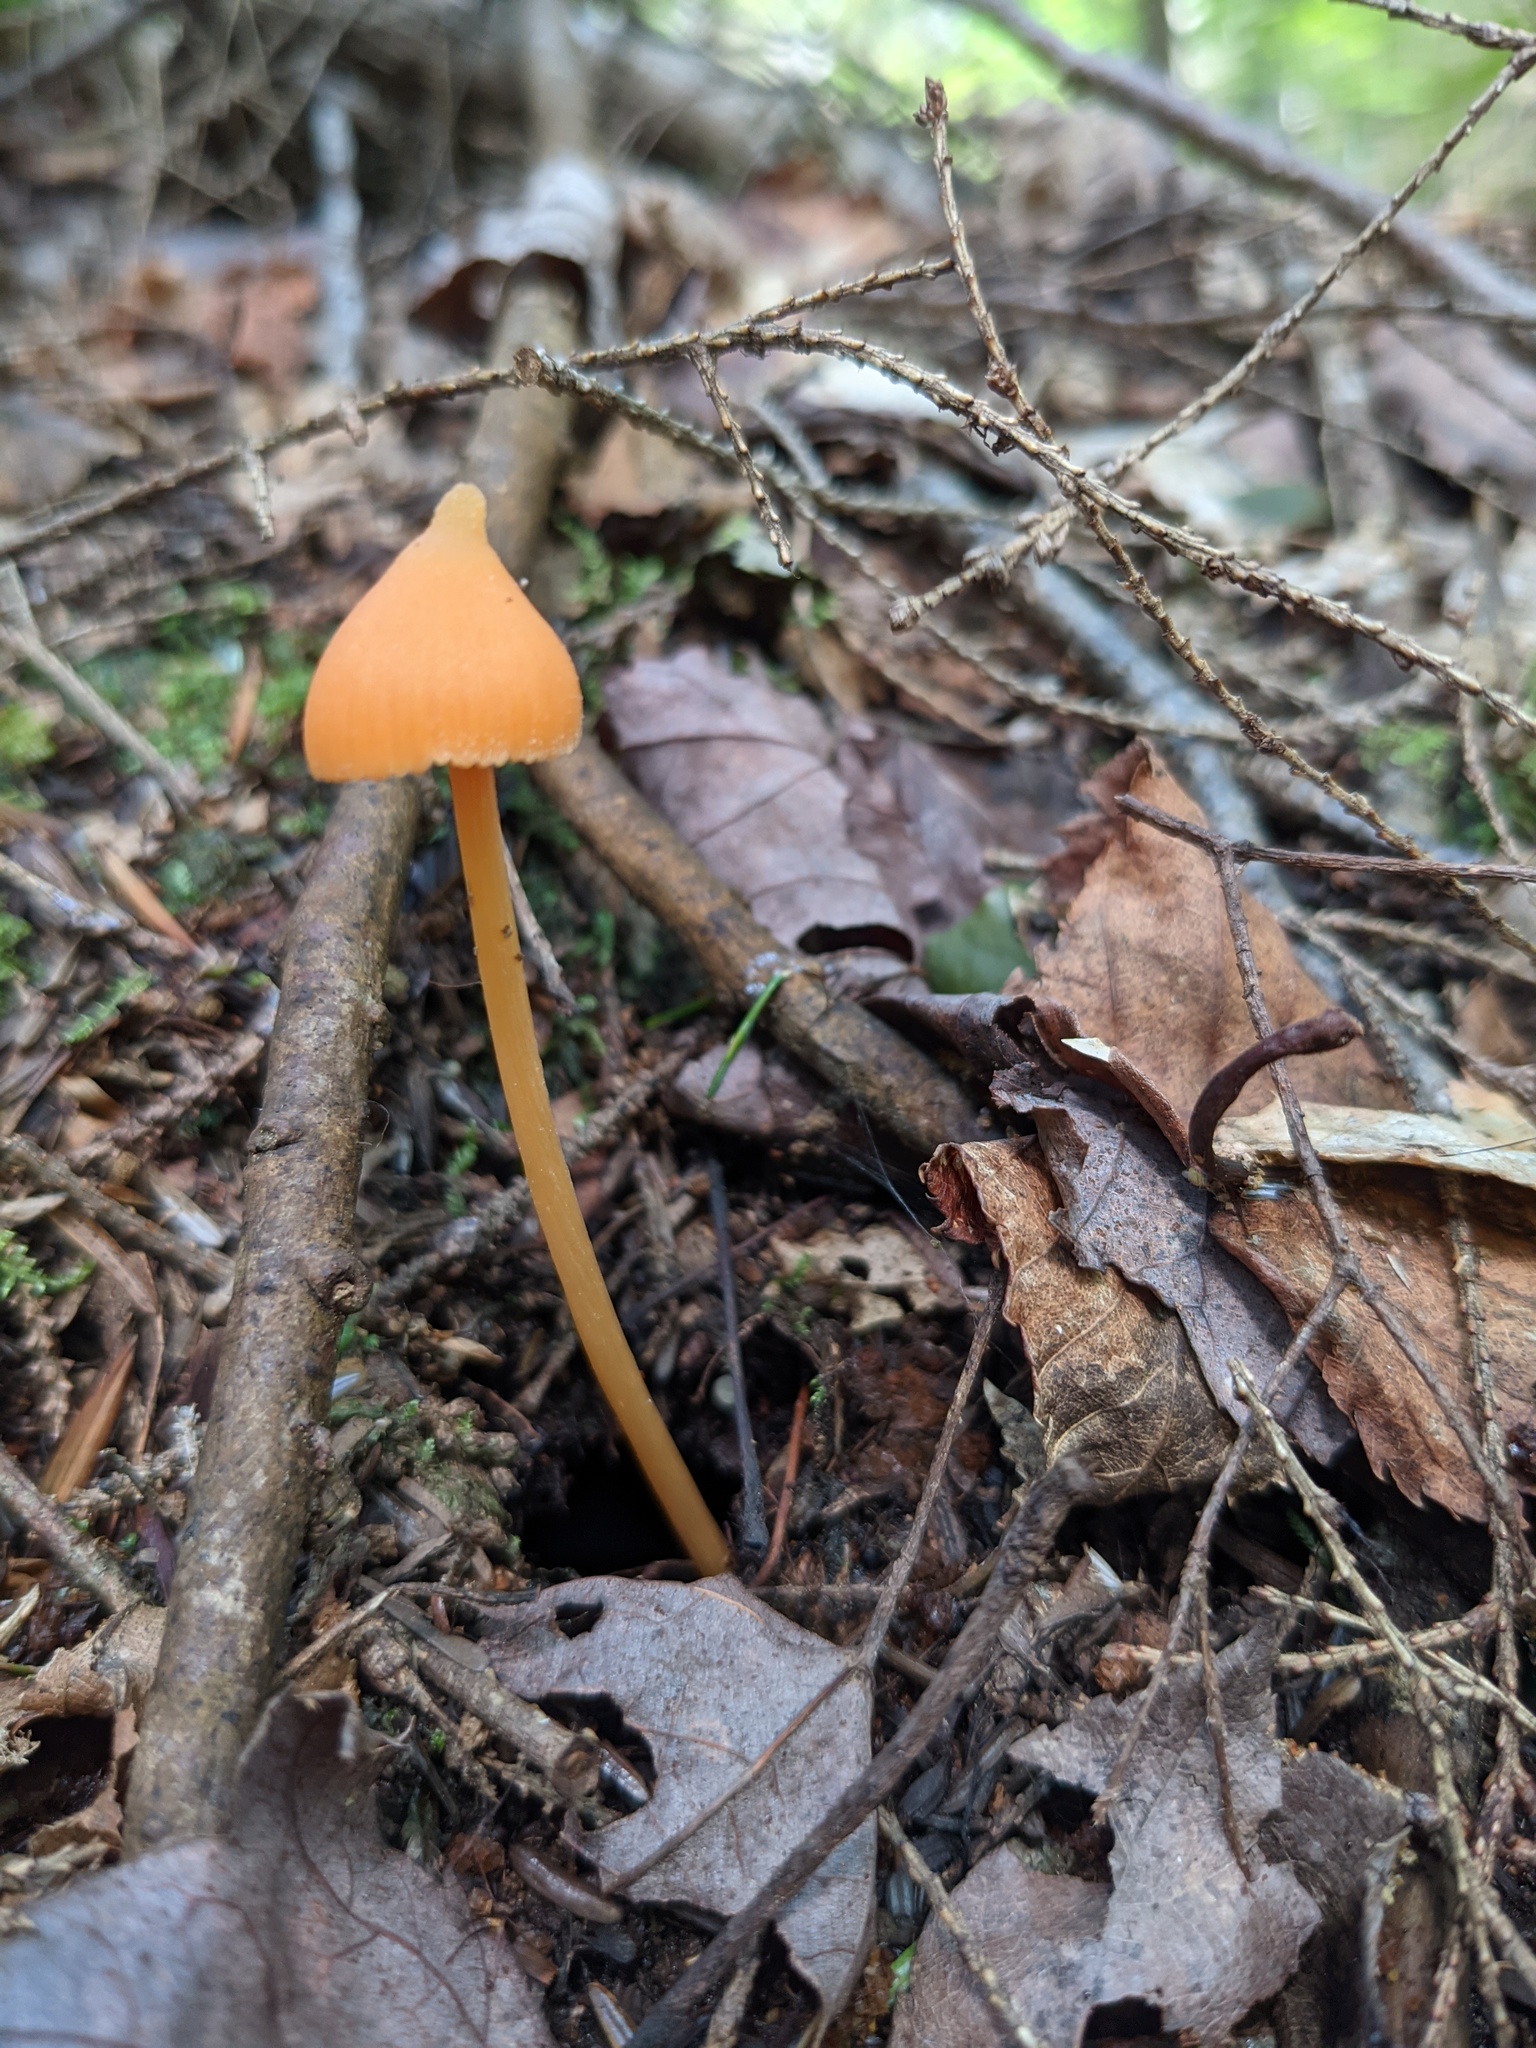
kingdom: Fungi
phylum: Basidiomycota
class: Agaricomycetes
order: Agaricales
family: Entolomataceae
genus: Entoloma
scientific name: Entoloma quadratum
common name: Salmon pinkgill
